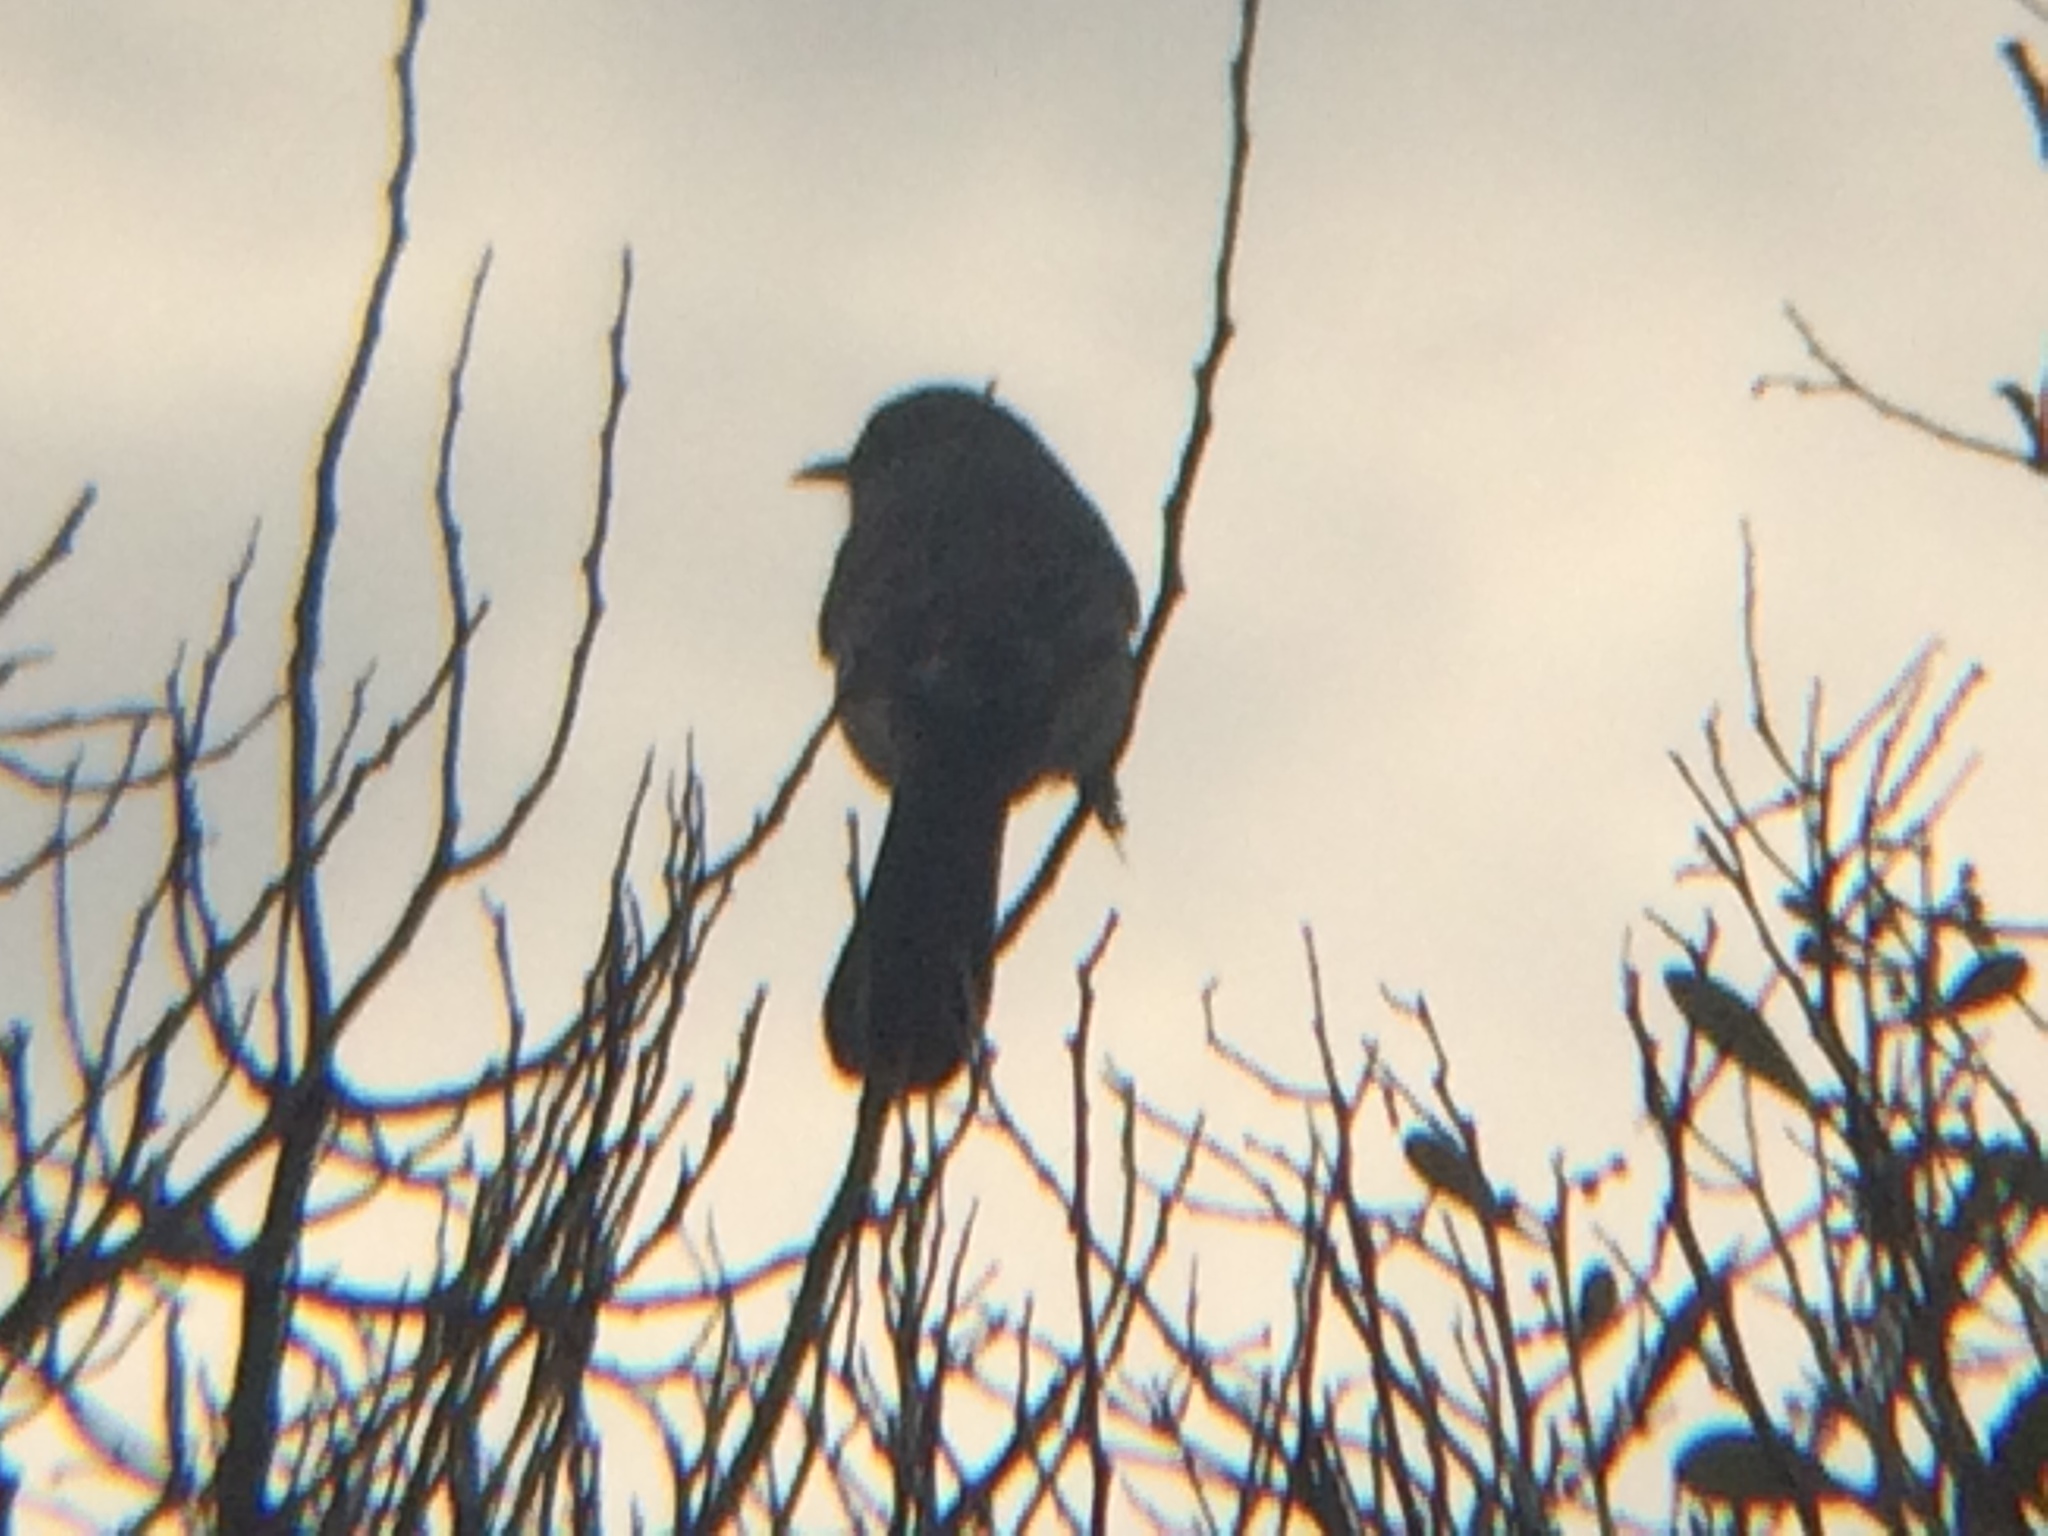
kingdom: Animalia
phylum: Chordata
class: Aves
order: Passeriformes
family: Mimidae
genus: Mimus
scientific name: Mimus polyglottos
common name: Northern mockingbird
